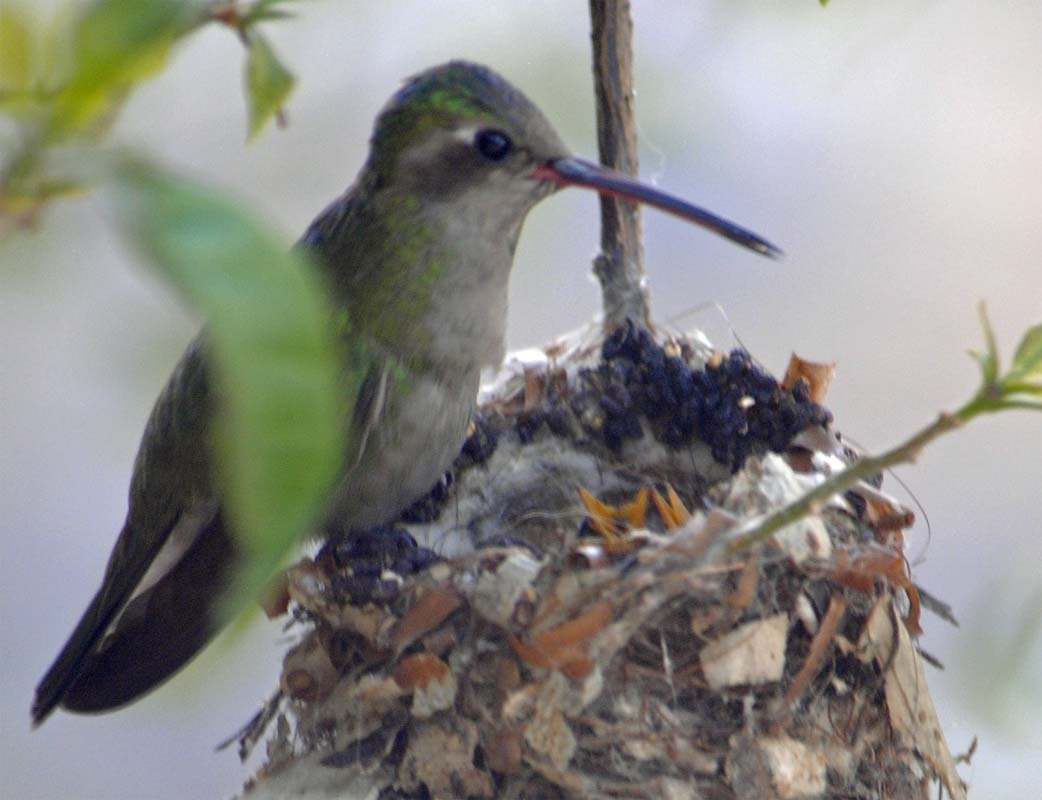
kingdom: Animalia
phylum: Chordata
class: Aves
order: Apodiformes
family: Trochilidae
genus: Cynanthus
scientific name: Cynanthus latirostris
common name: Broad-billed hummingbird
